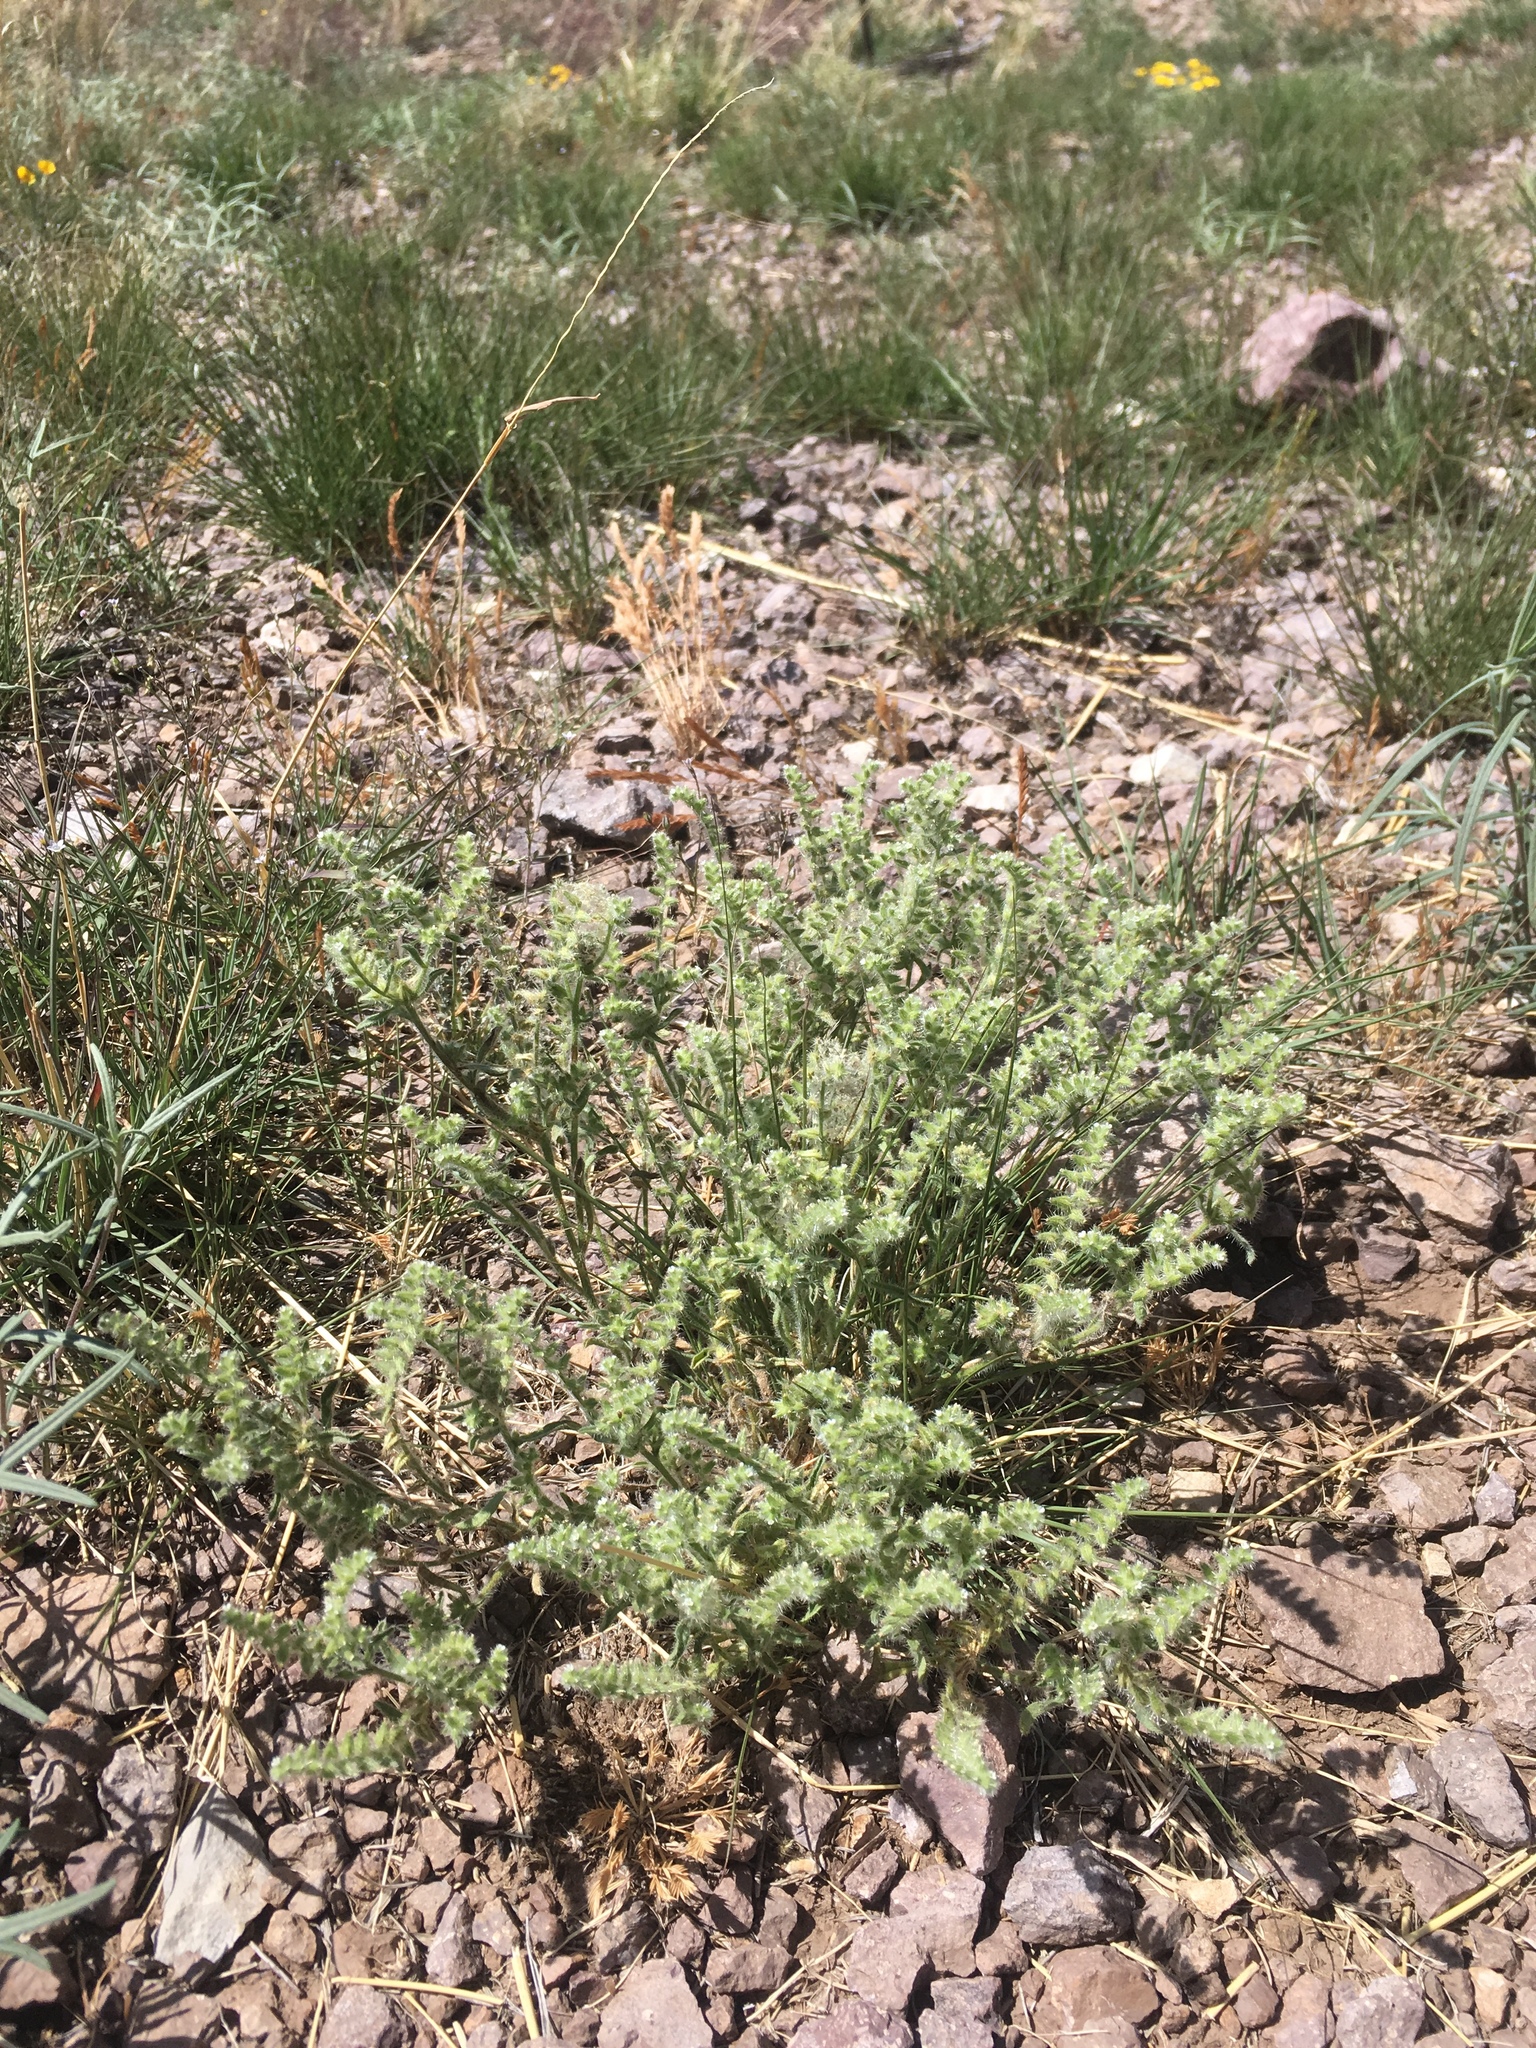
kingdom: Plantae
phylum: Tracheophyta
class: Magnoliopsida
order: Boraginales
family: Boraginaceae
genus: Cryptantha
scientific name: Cryptantha crassisepala
